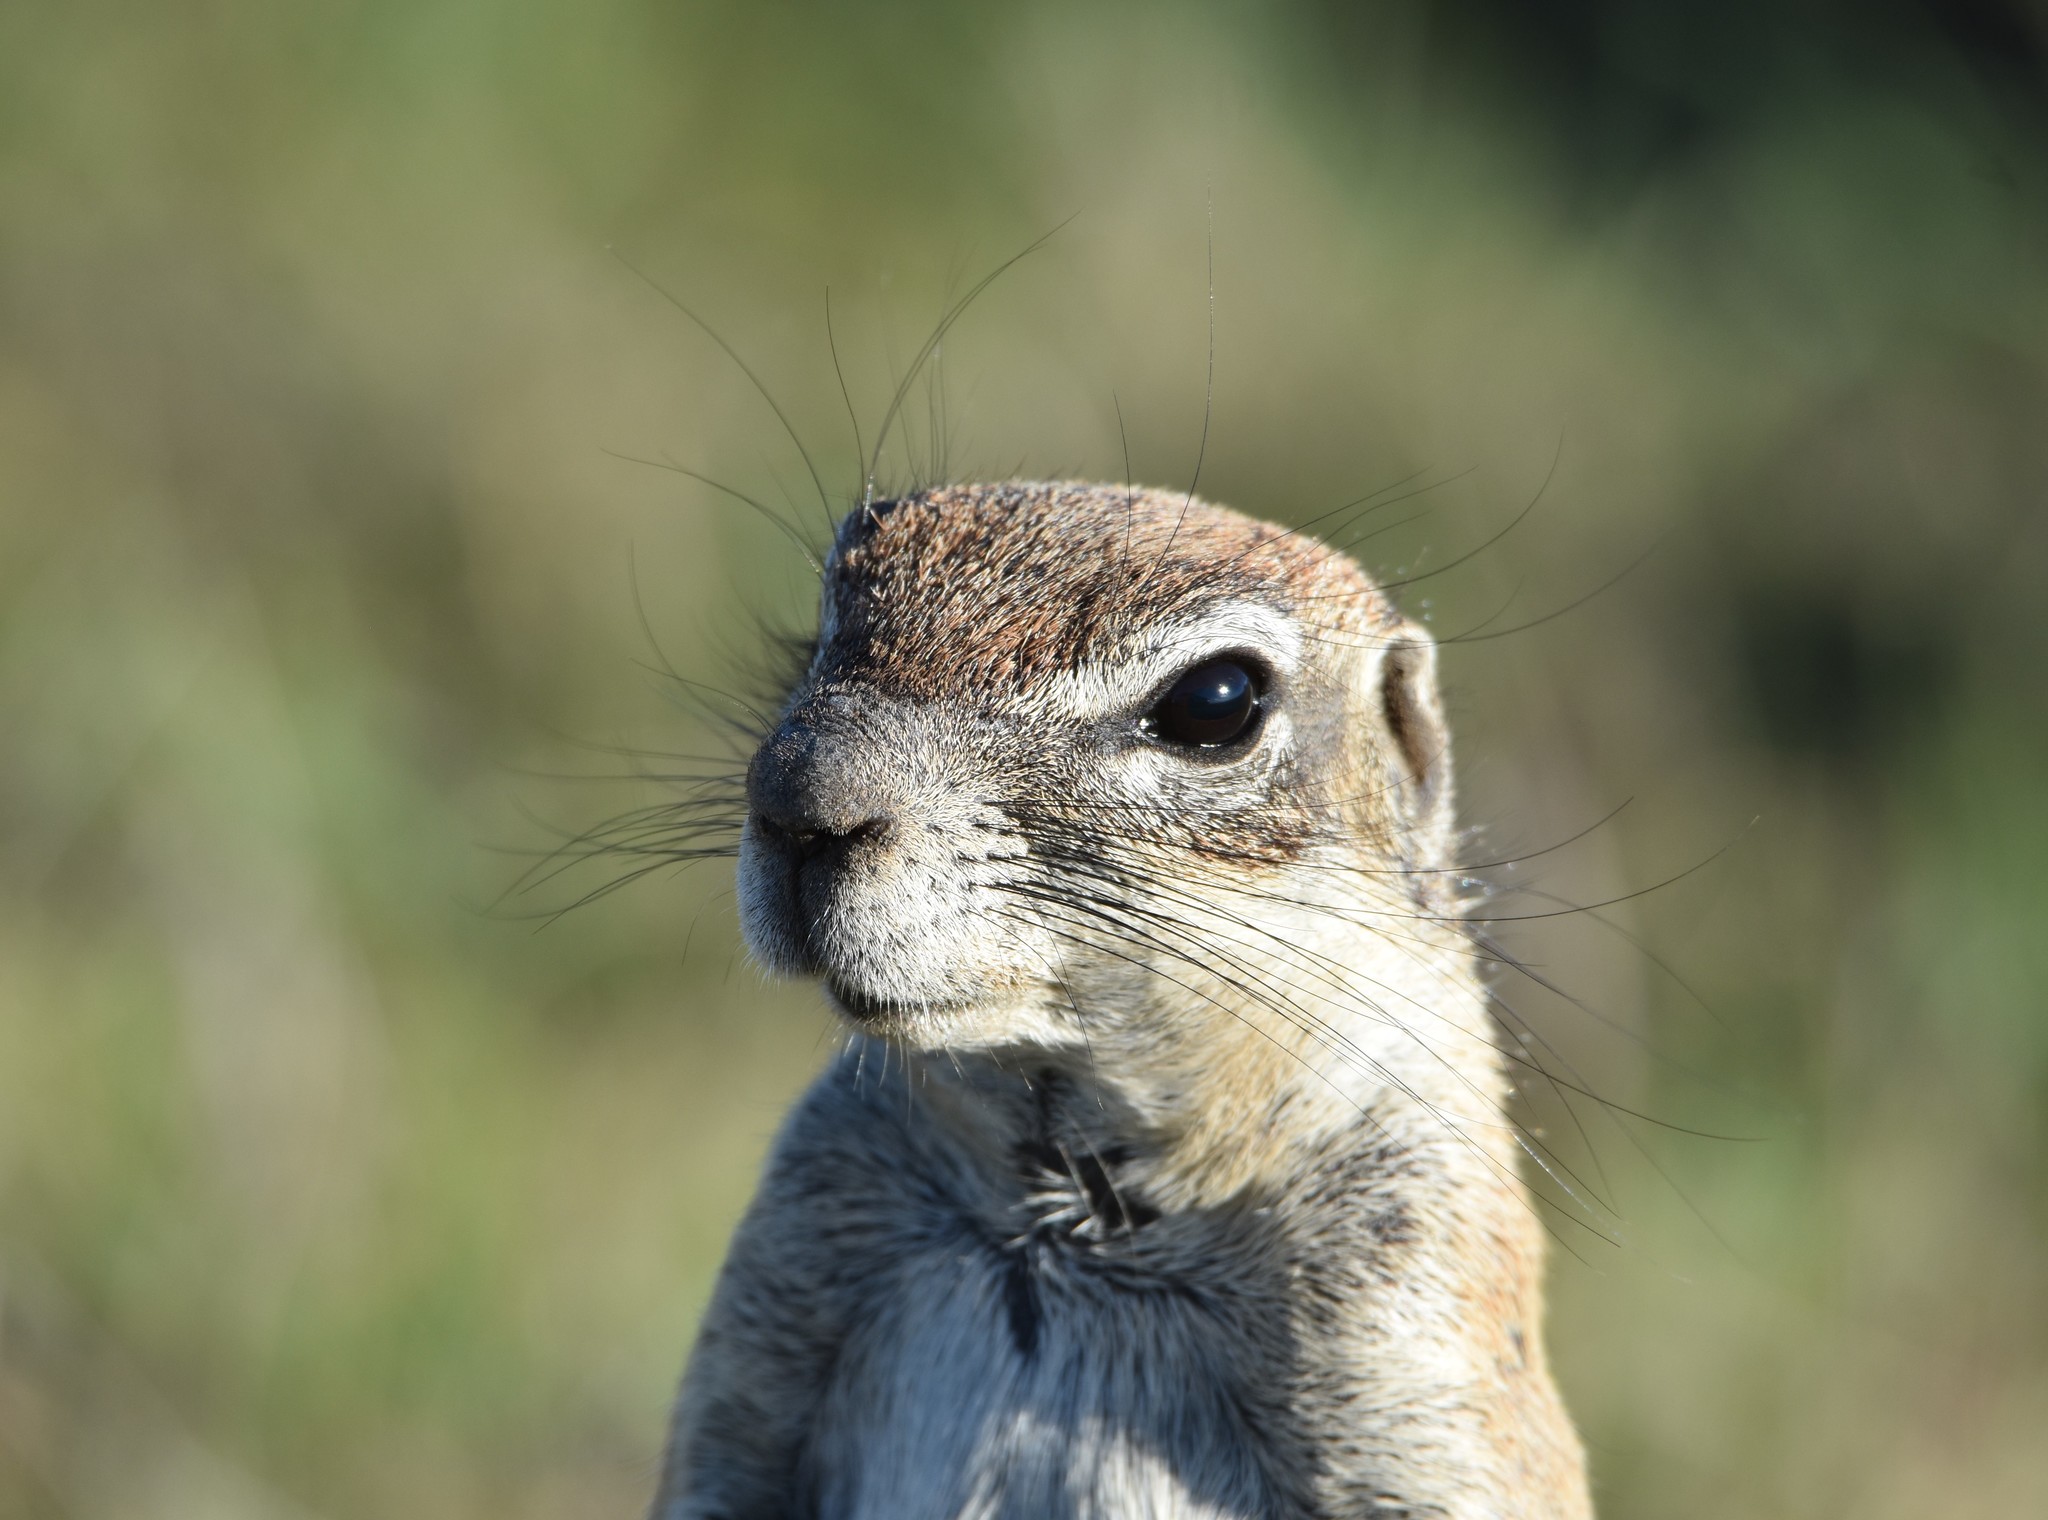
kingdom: Animalia
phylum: Chordata
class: Mammalia
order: Rodentia
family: Sciuridae
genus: Xerus
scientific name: Xerus inauris
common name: South african ground squirrel
